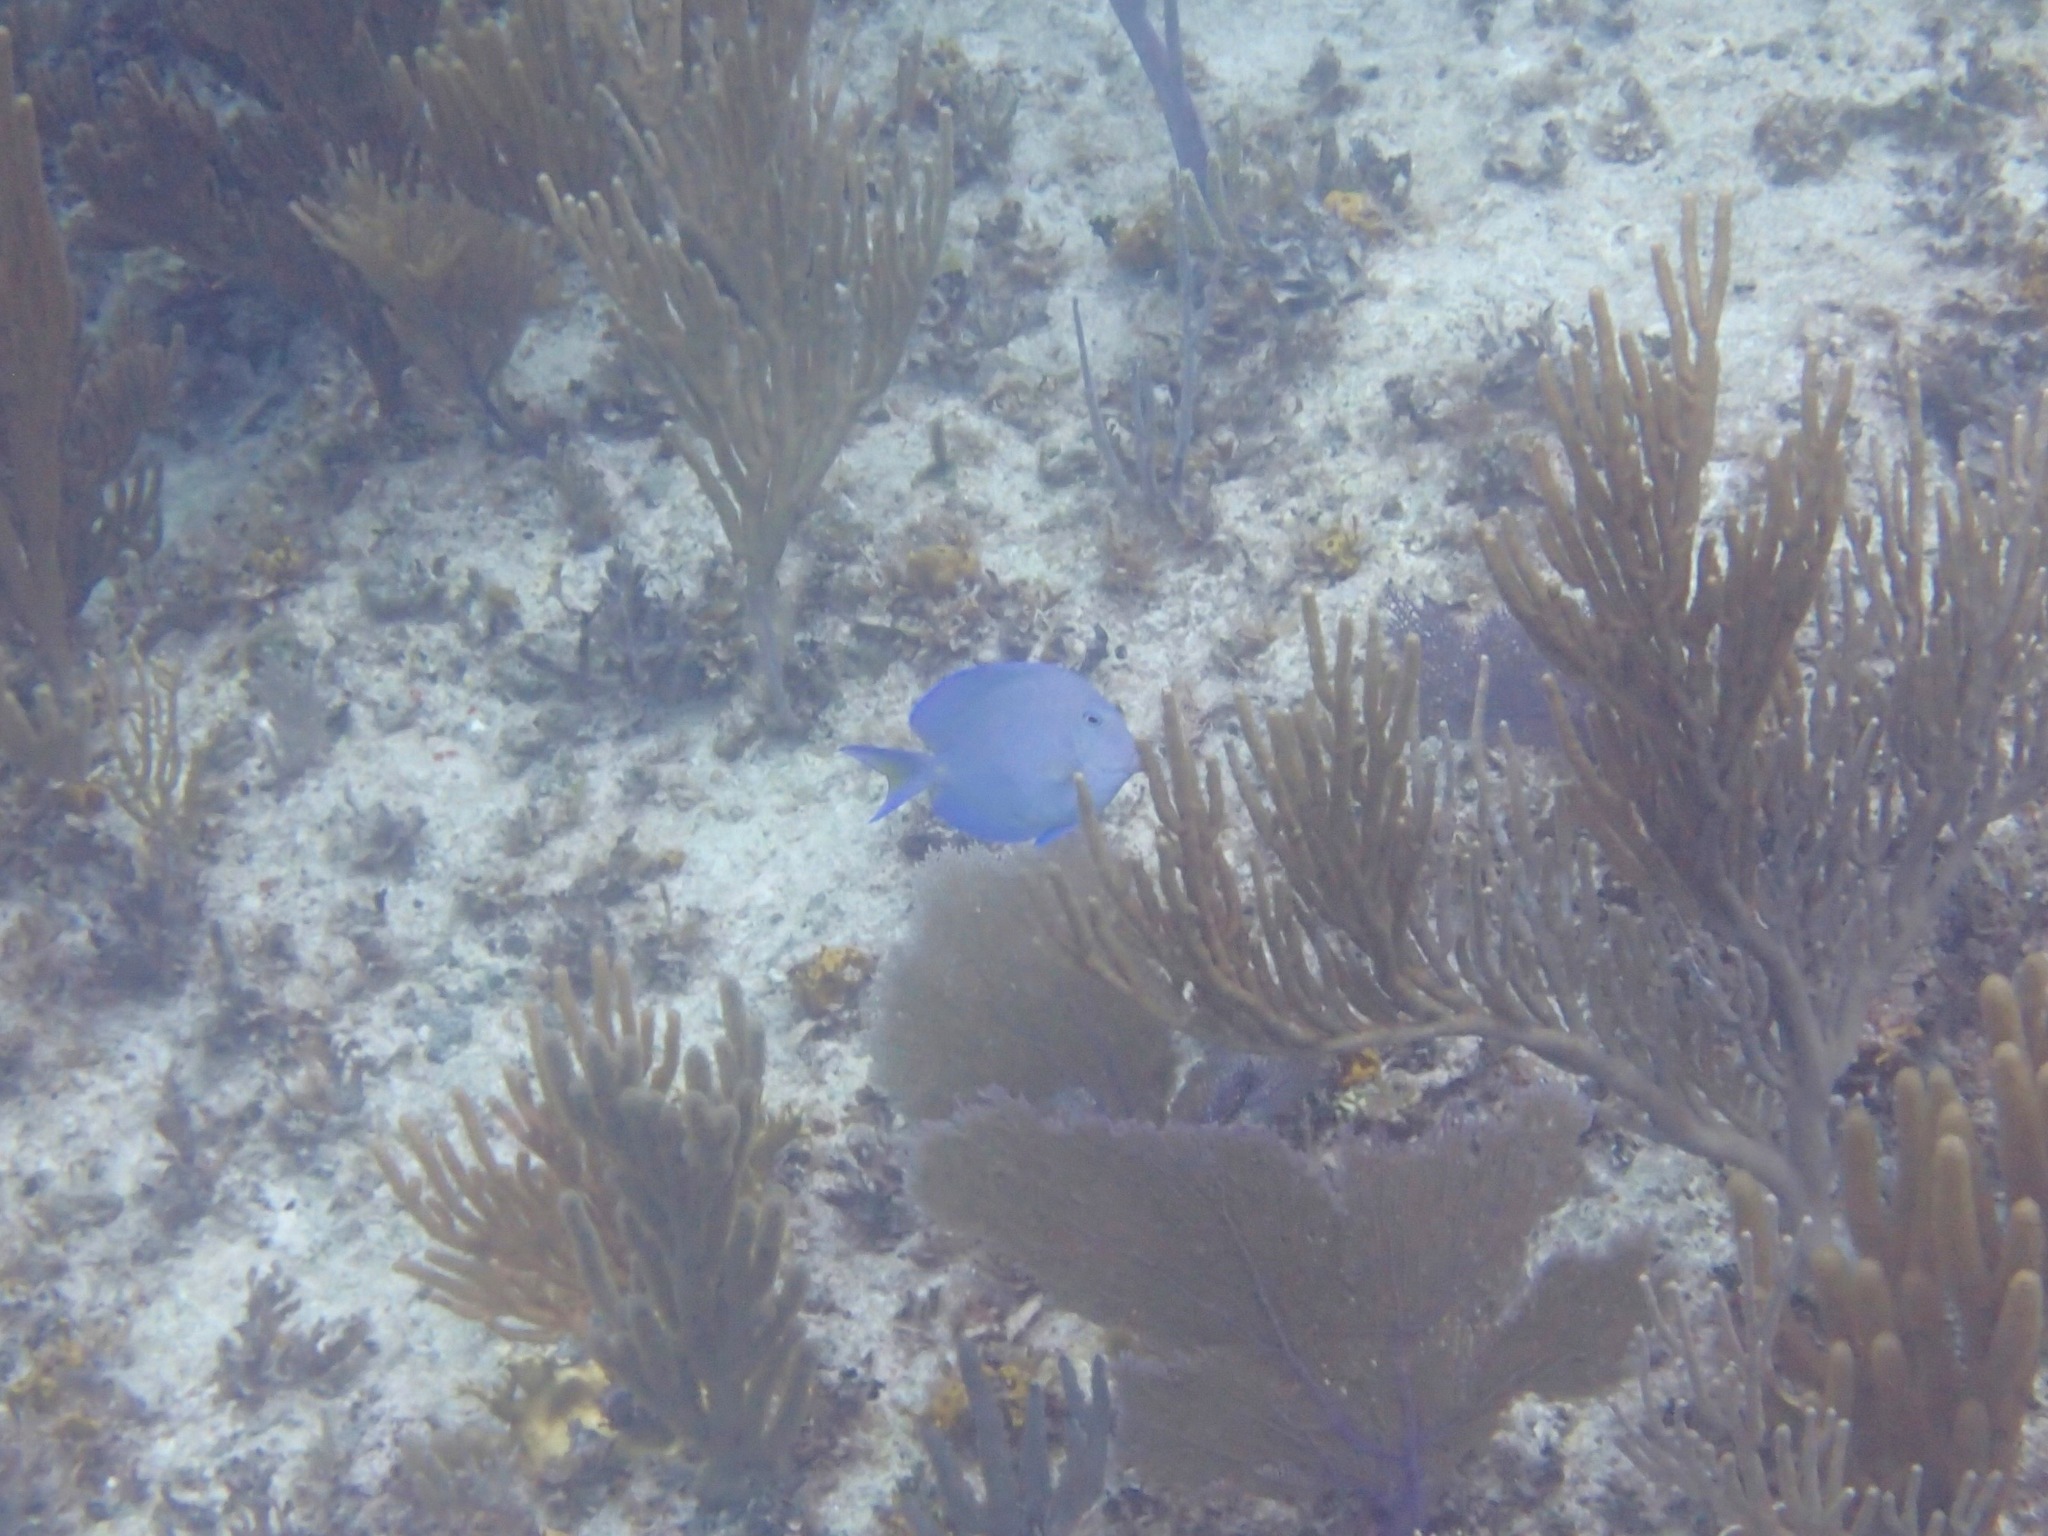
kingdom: Animalia
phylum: Chordata
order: Perciformes
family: Acanthuridae
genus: Acanthurus
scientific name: Acanthurus coeruleus
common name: Blue tang
